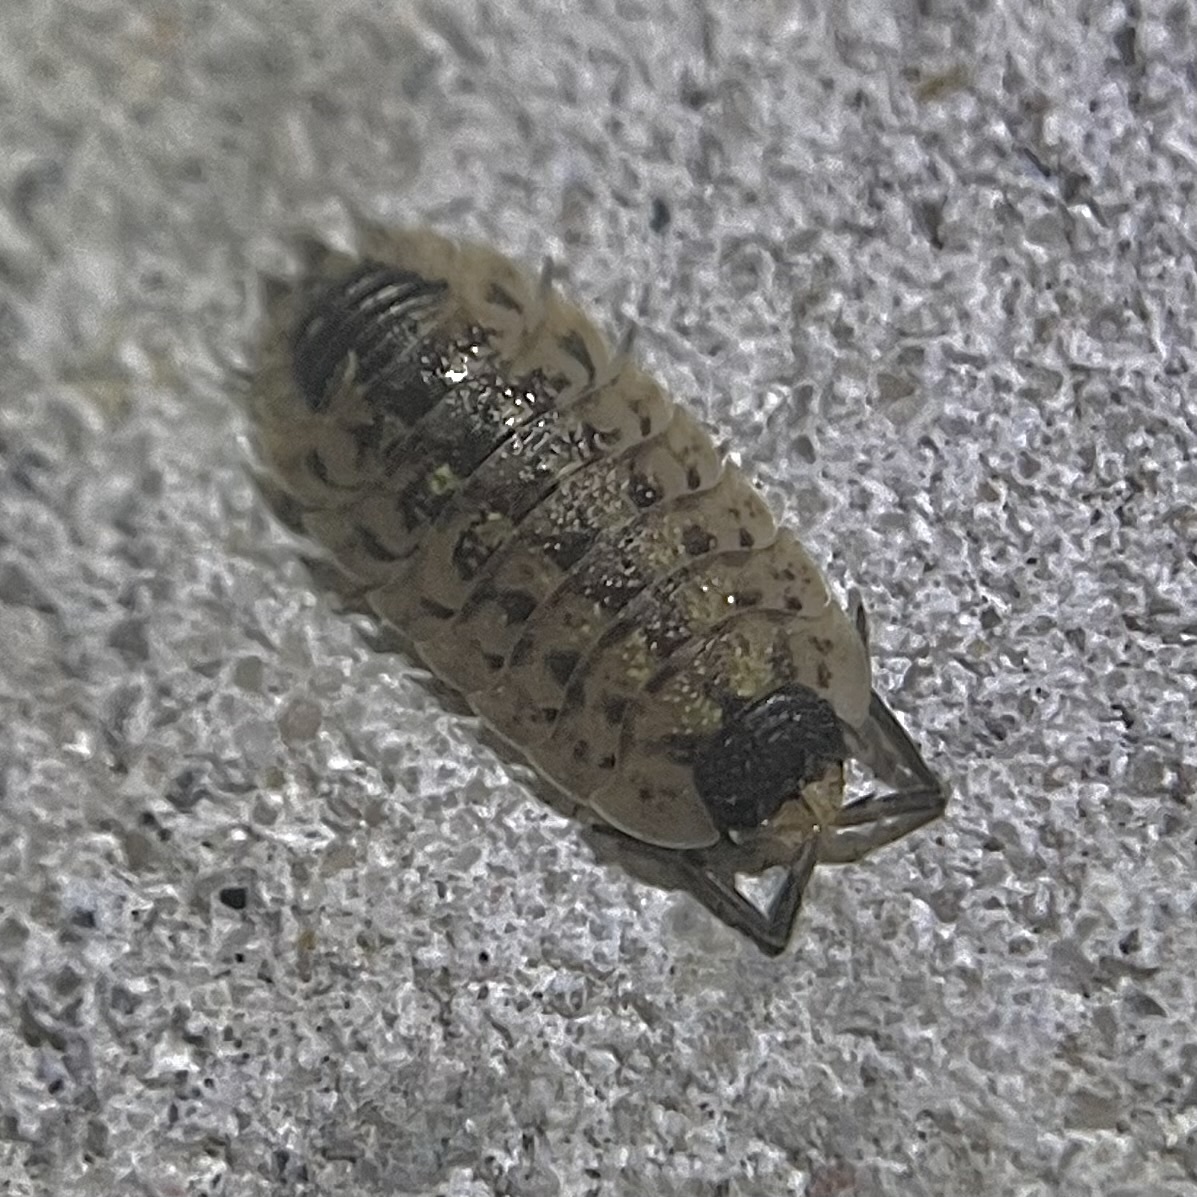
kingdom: Animalia
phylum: Arthropoda
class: Malacostraca
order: Isopoda
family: Porcellionidae
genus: Porcellio
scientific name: Porcellio spinicornis
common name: Painted woodlouse
